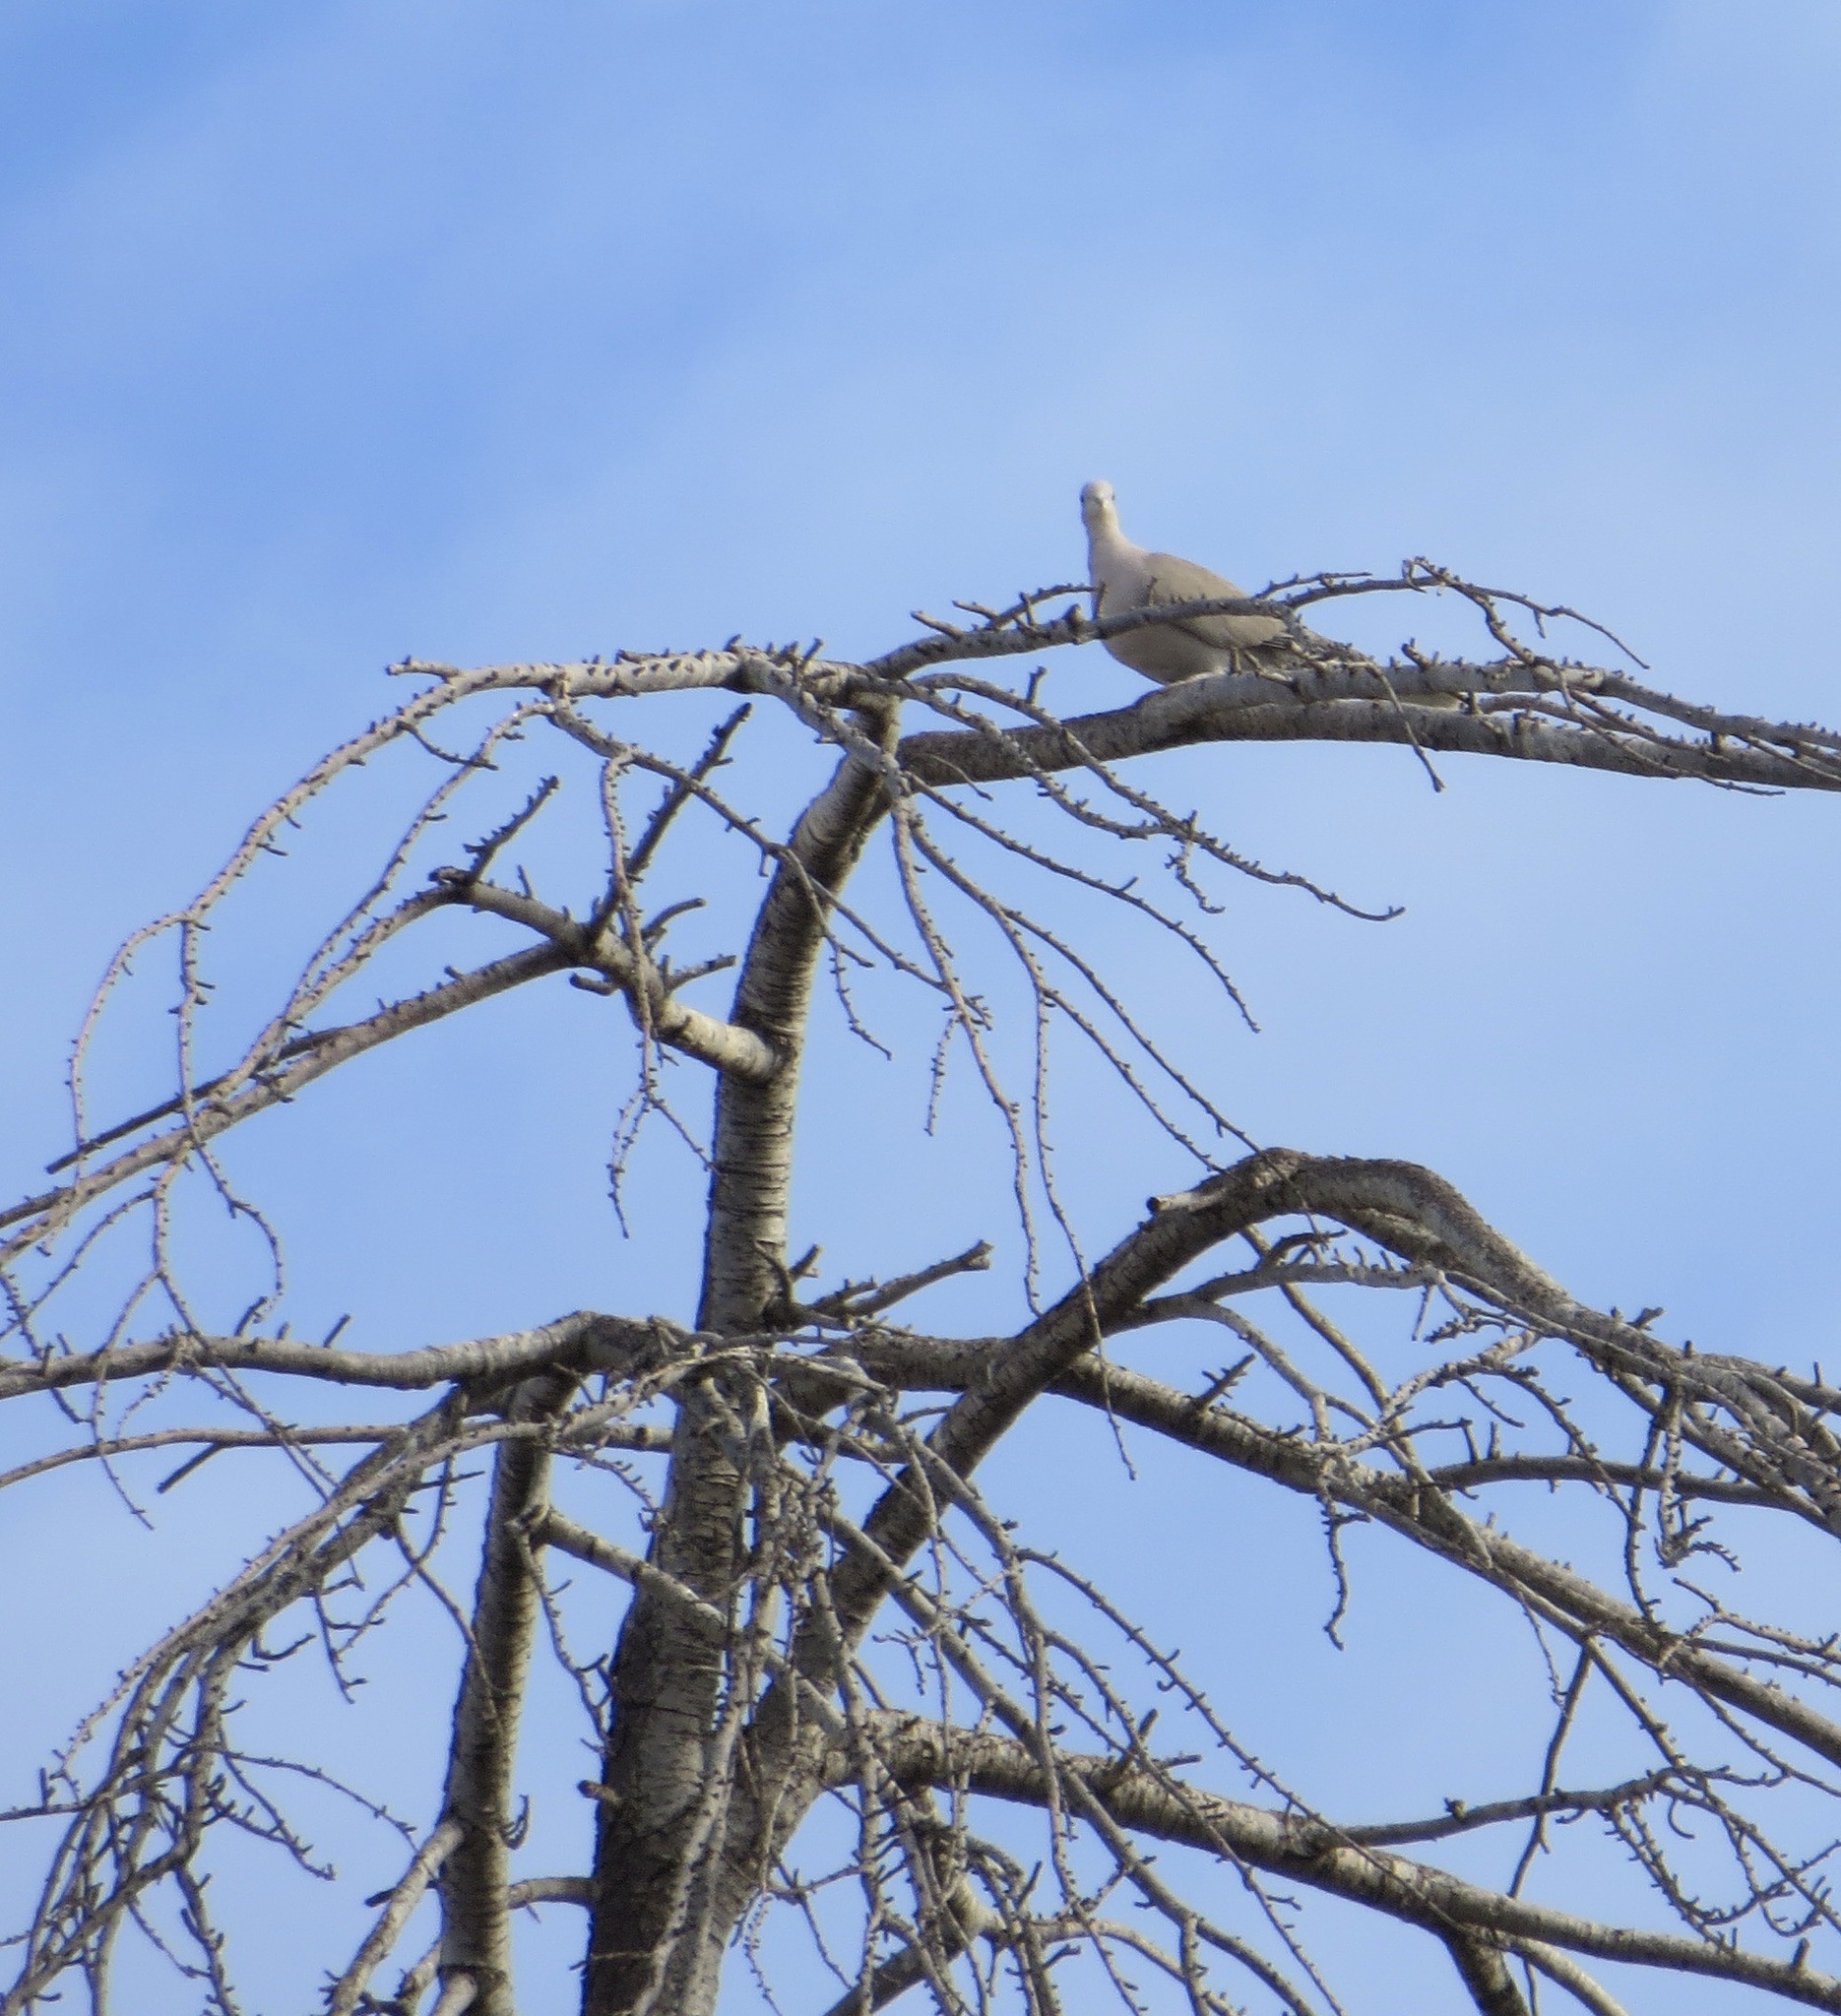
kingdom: Animalia
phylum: Chordata
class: Aves
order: Columbiformes
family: Columbidae
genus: Streptopelia
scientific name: Streptopelia decaocto
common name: Eurasian collared dove
